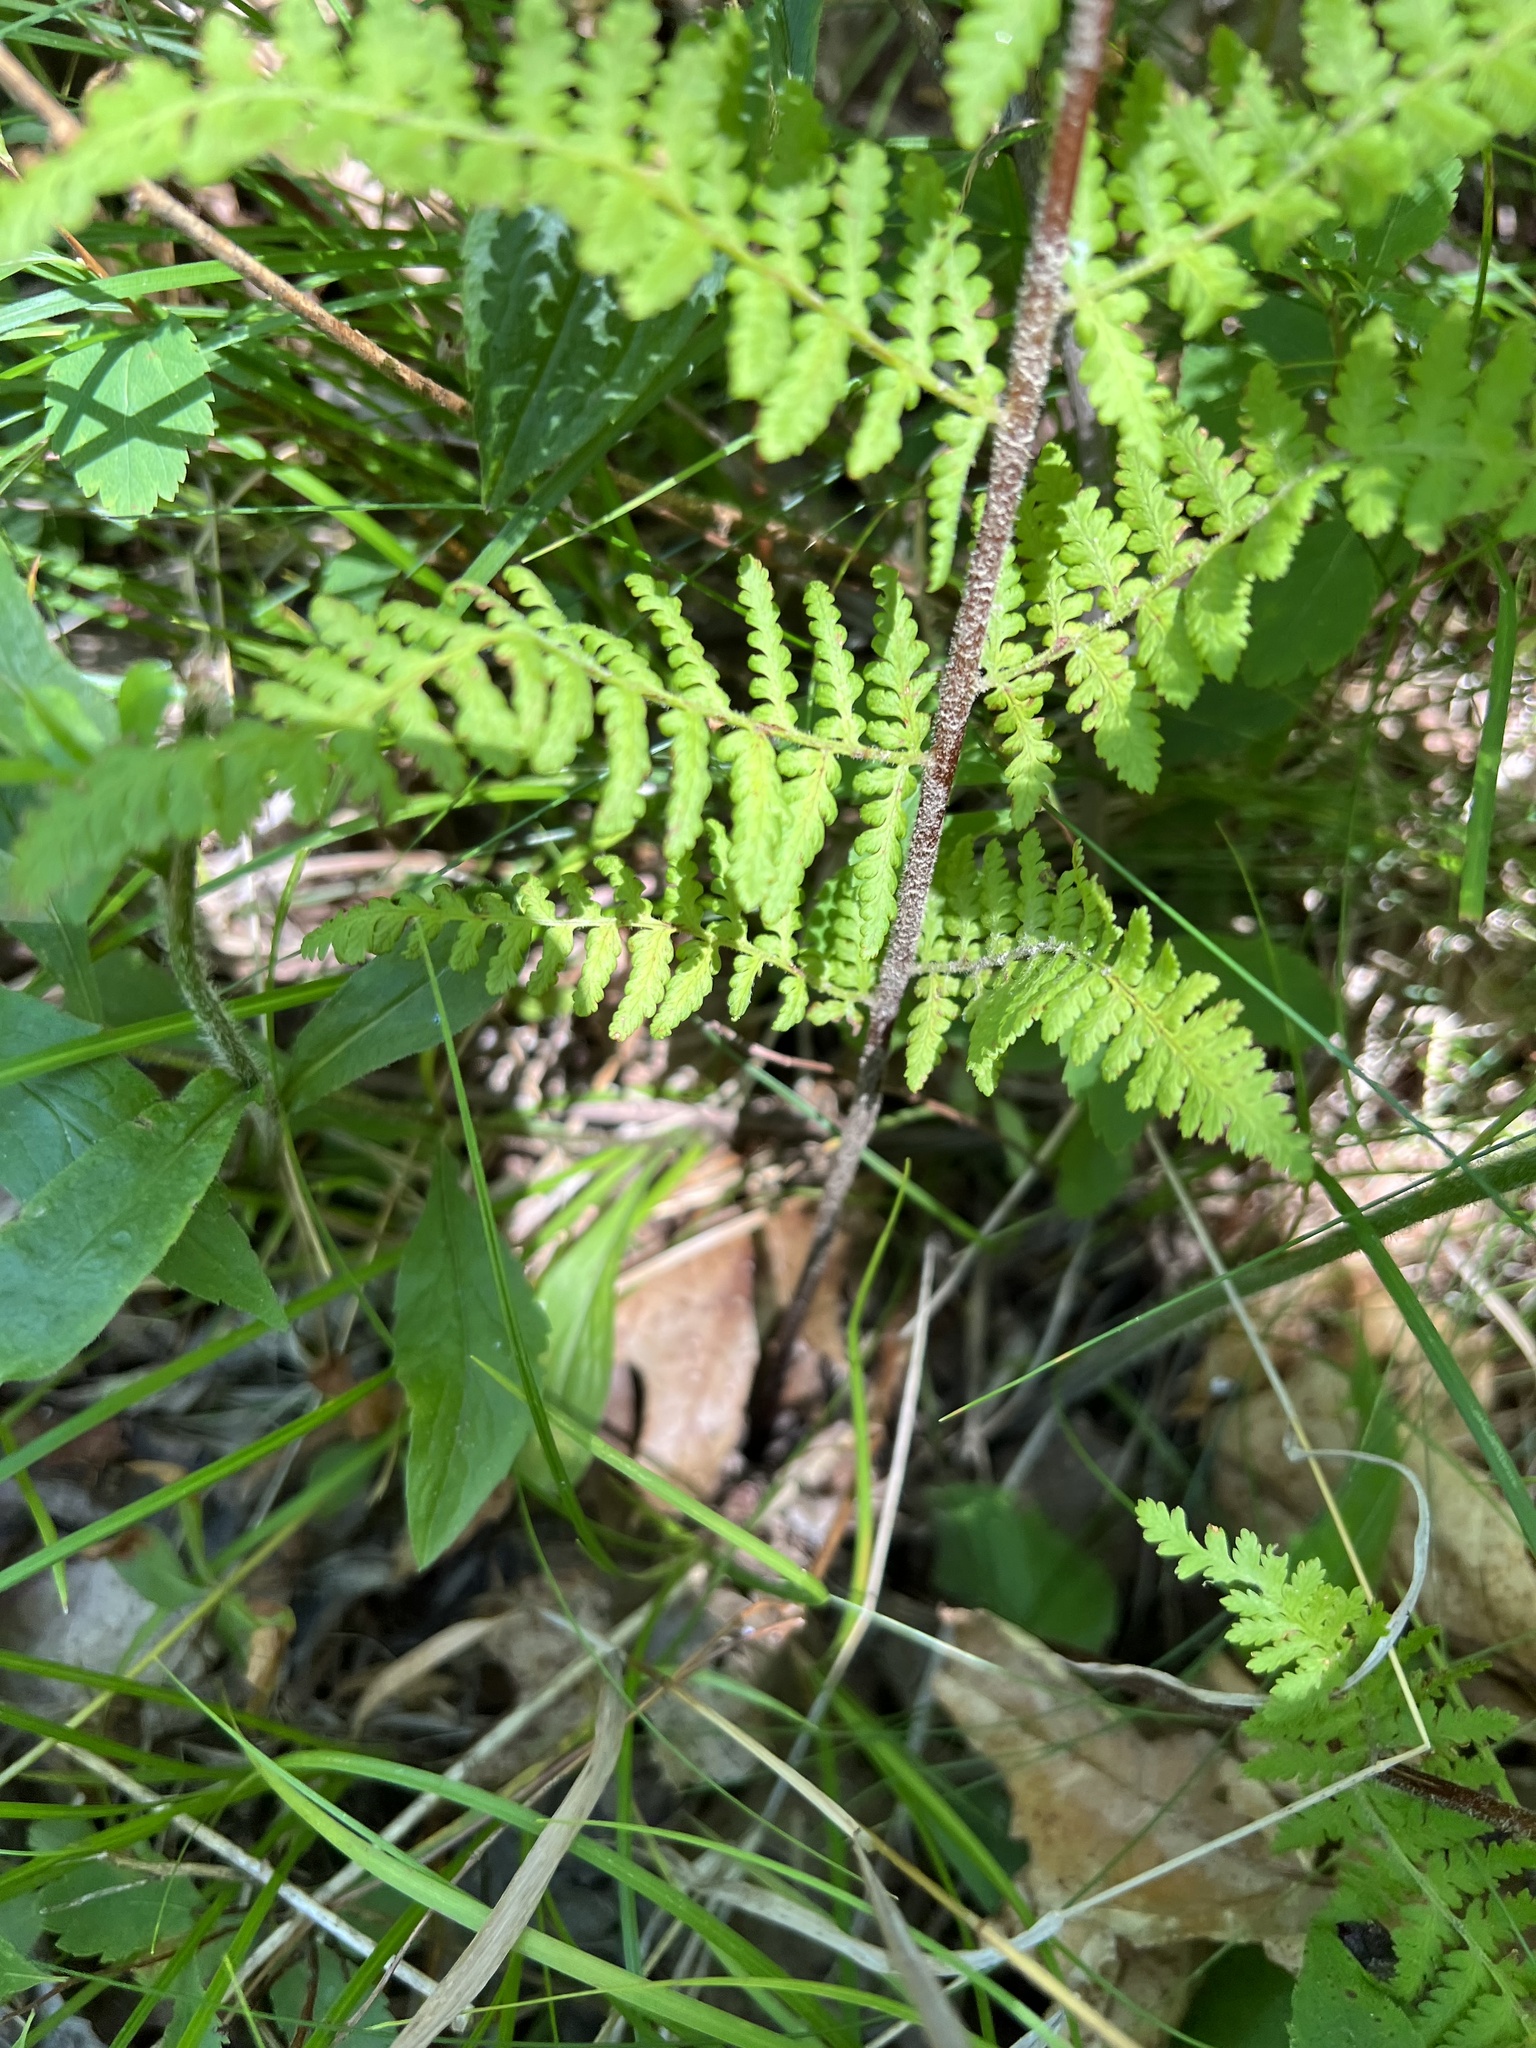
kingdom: Plantae
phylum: Tracheophyta
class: Polypodiopsida
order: Polypodiales
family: Dennstaedtiaceae
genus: Sitobolium
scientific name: Sitobolium punctilobum
